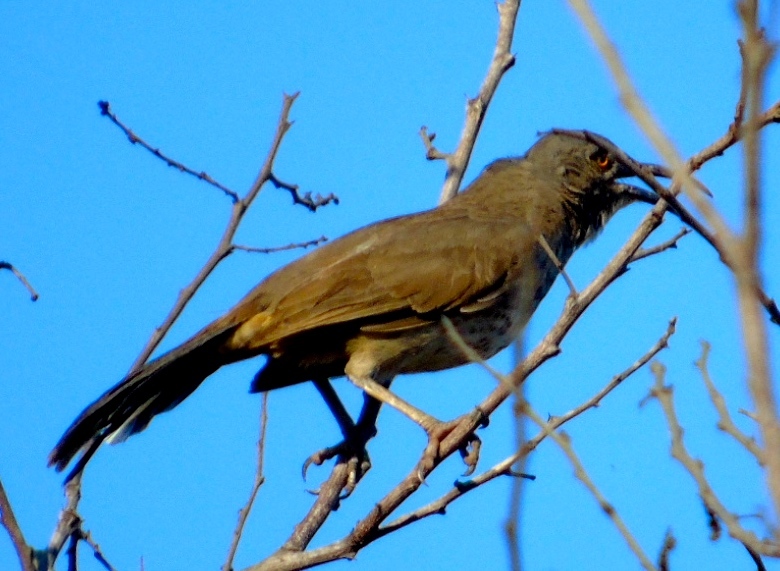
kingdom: Animalia
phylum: Chordata
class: Aves
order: Passeriformes
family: Mimidae
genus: Toxostoma
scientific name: Toxostoma curvirostre
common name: Curve-billed thrasher
